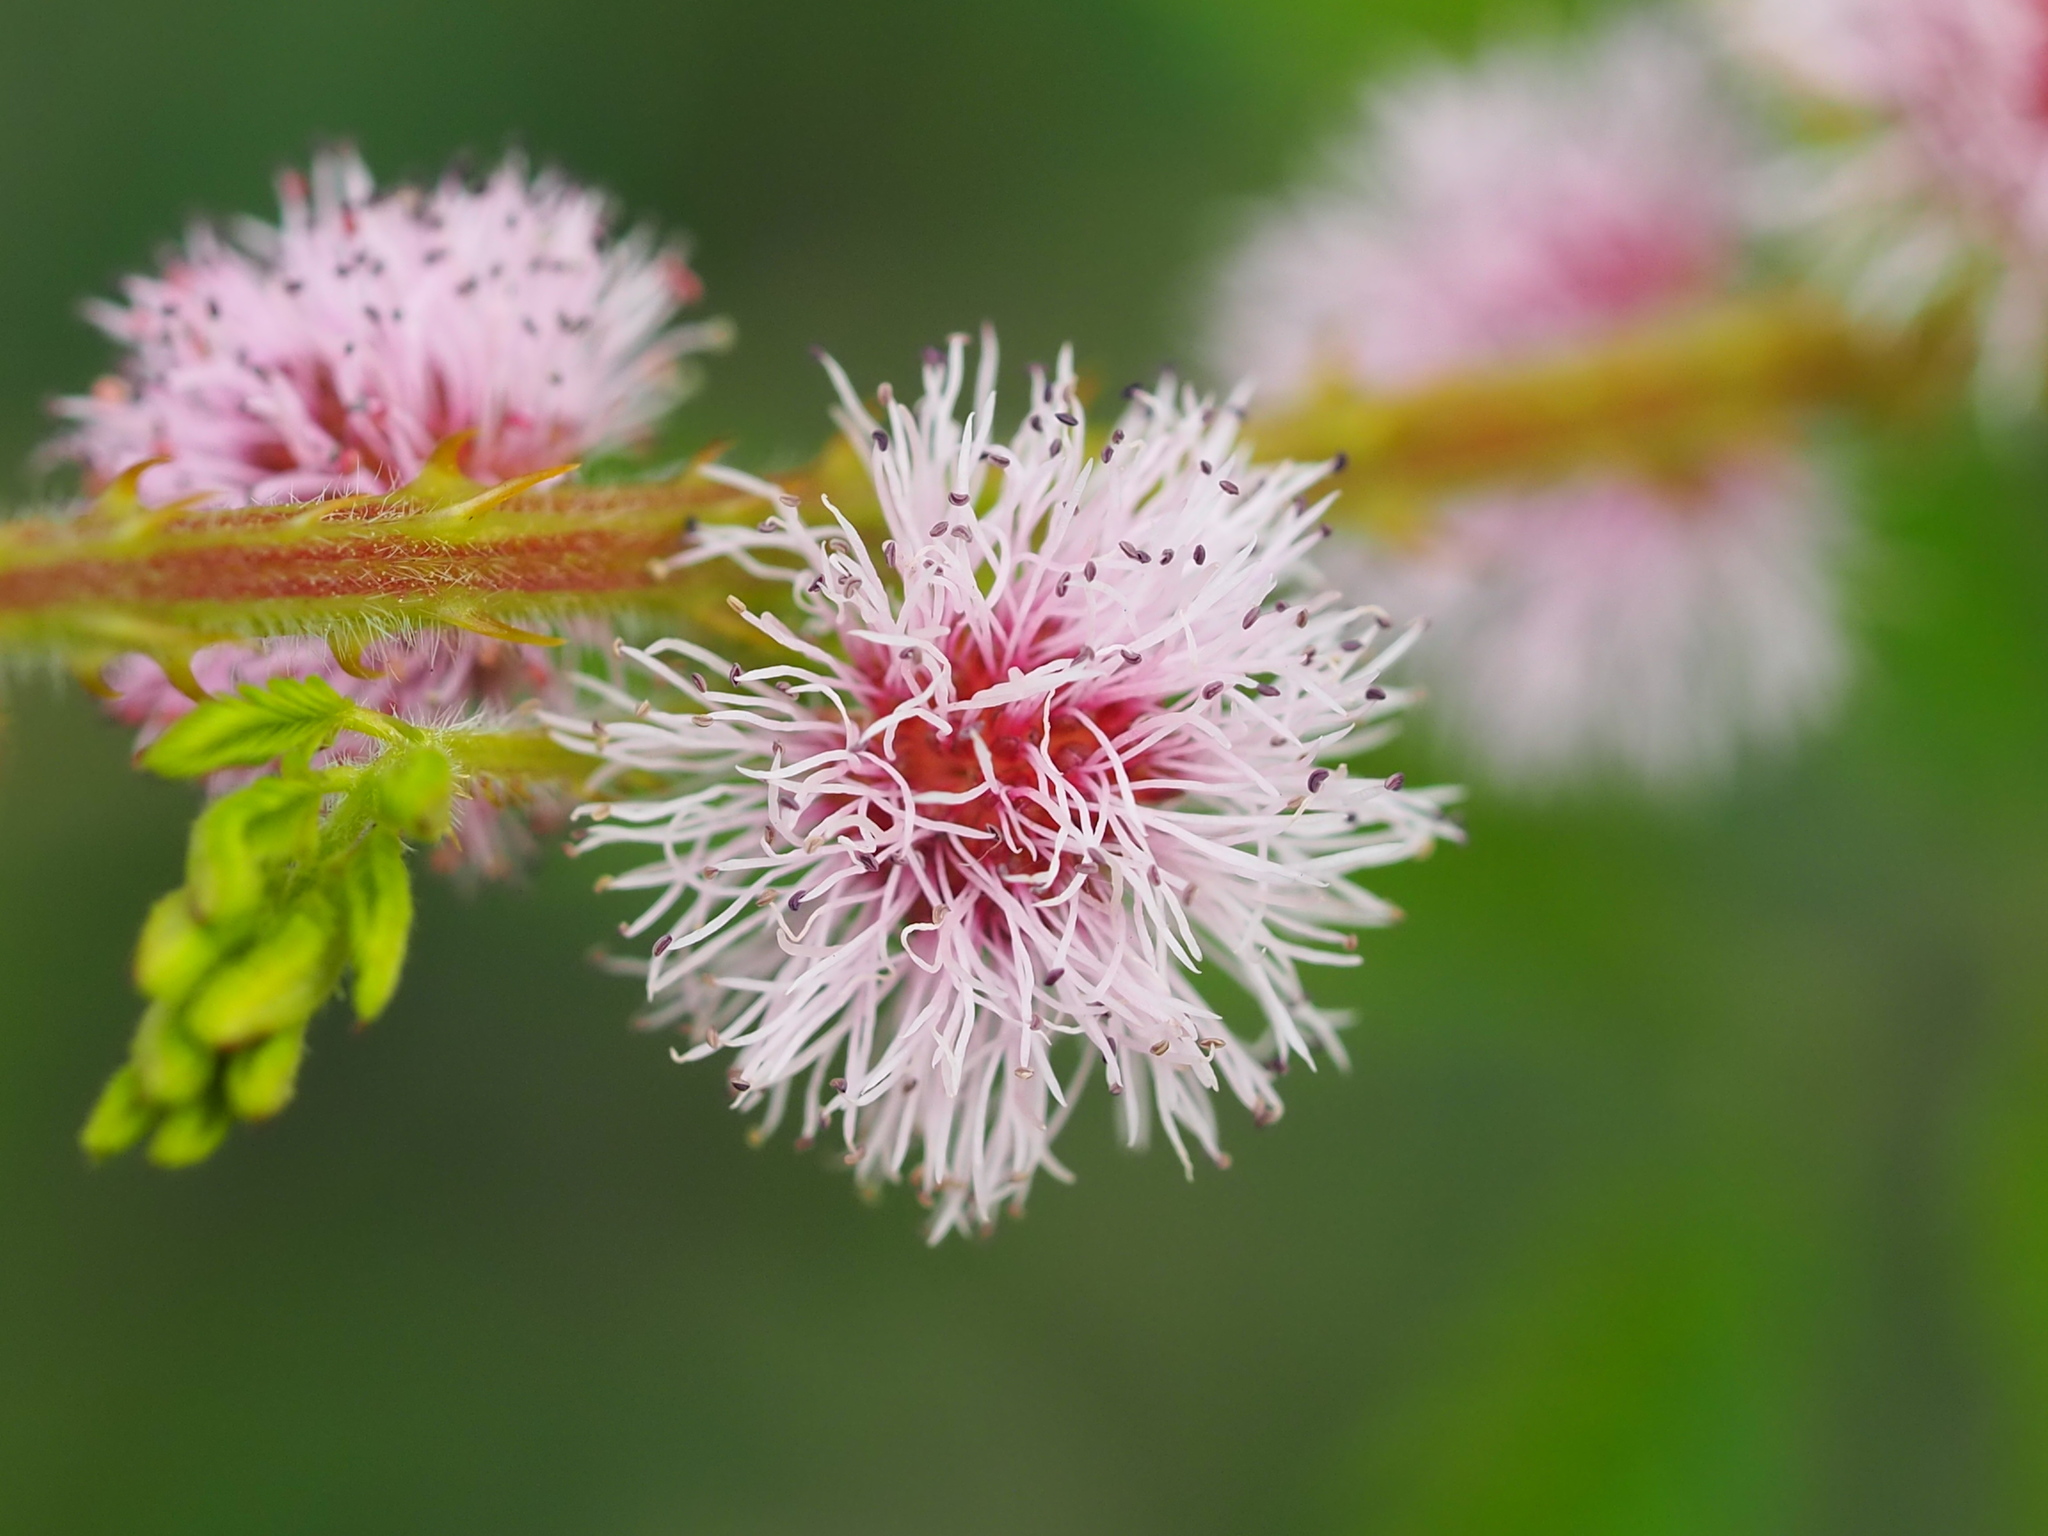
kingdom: Plantae
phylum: Tracheophyta
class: Magnoliopsida
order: Fabales
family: Fabaceae
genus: Mimosa
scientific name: Mimosa diplotricha
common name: Giant sensitive-plant
